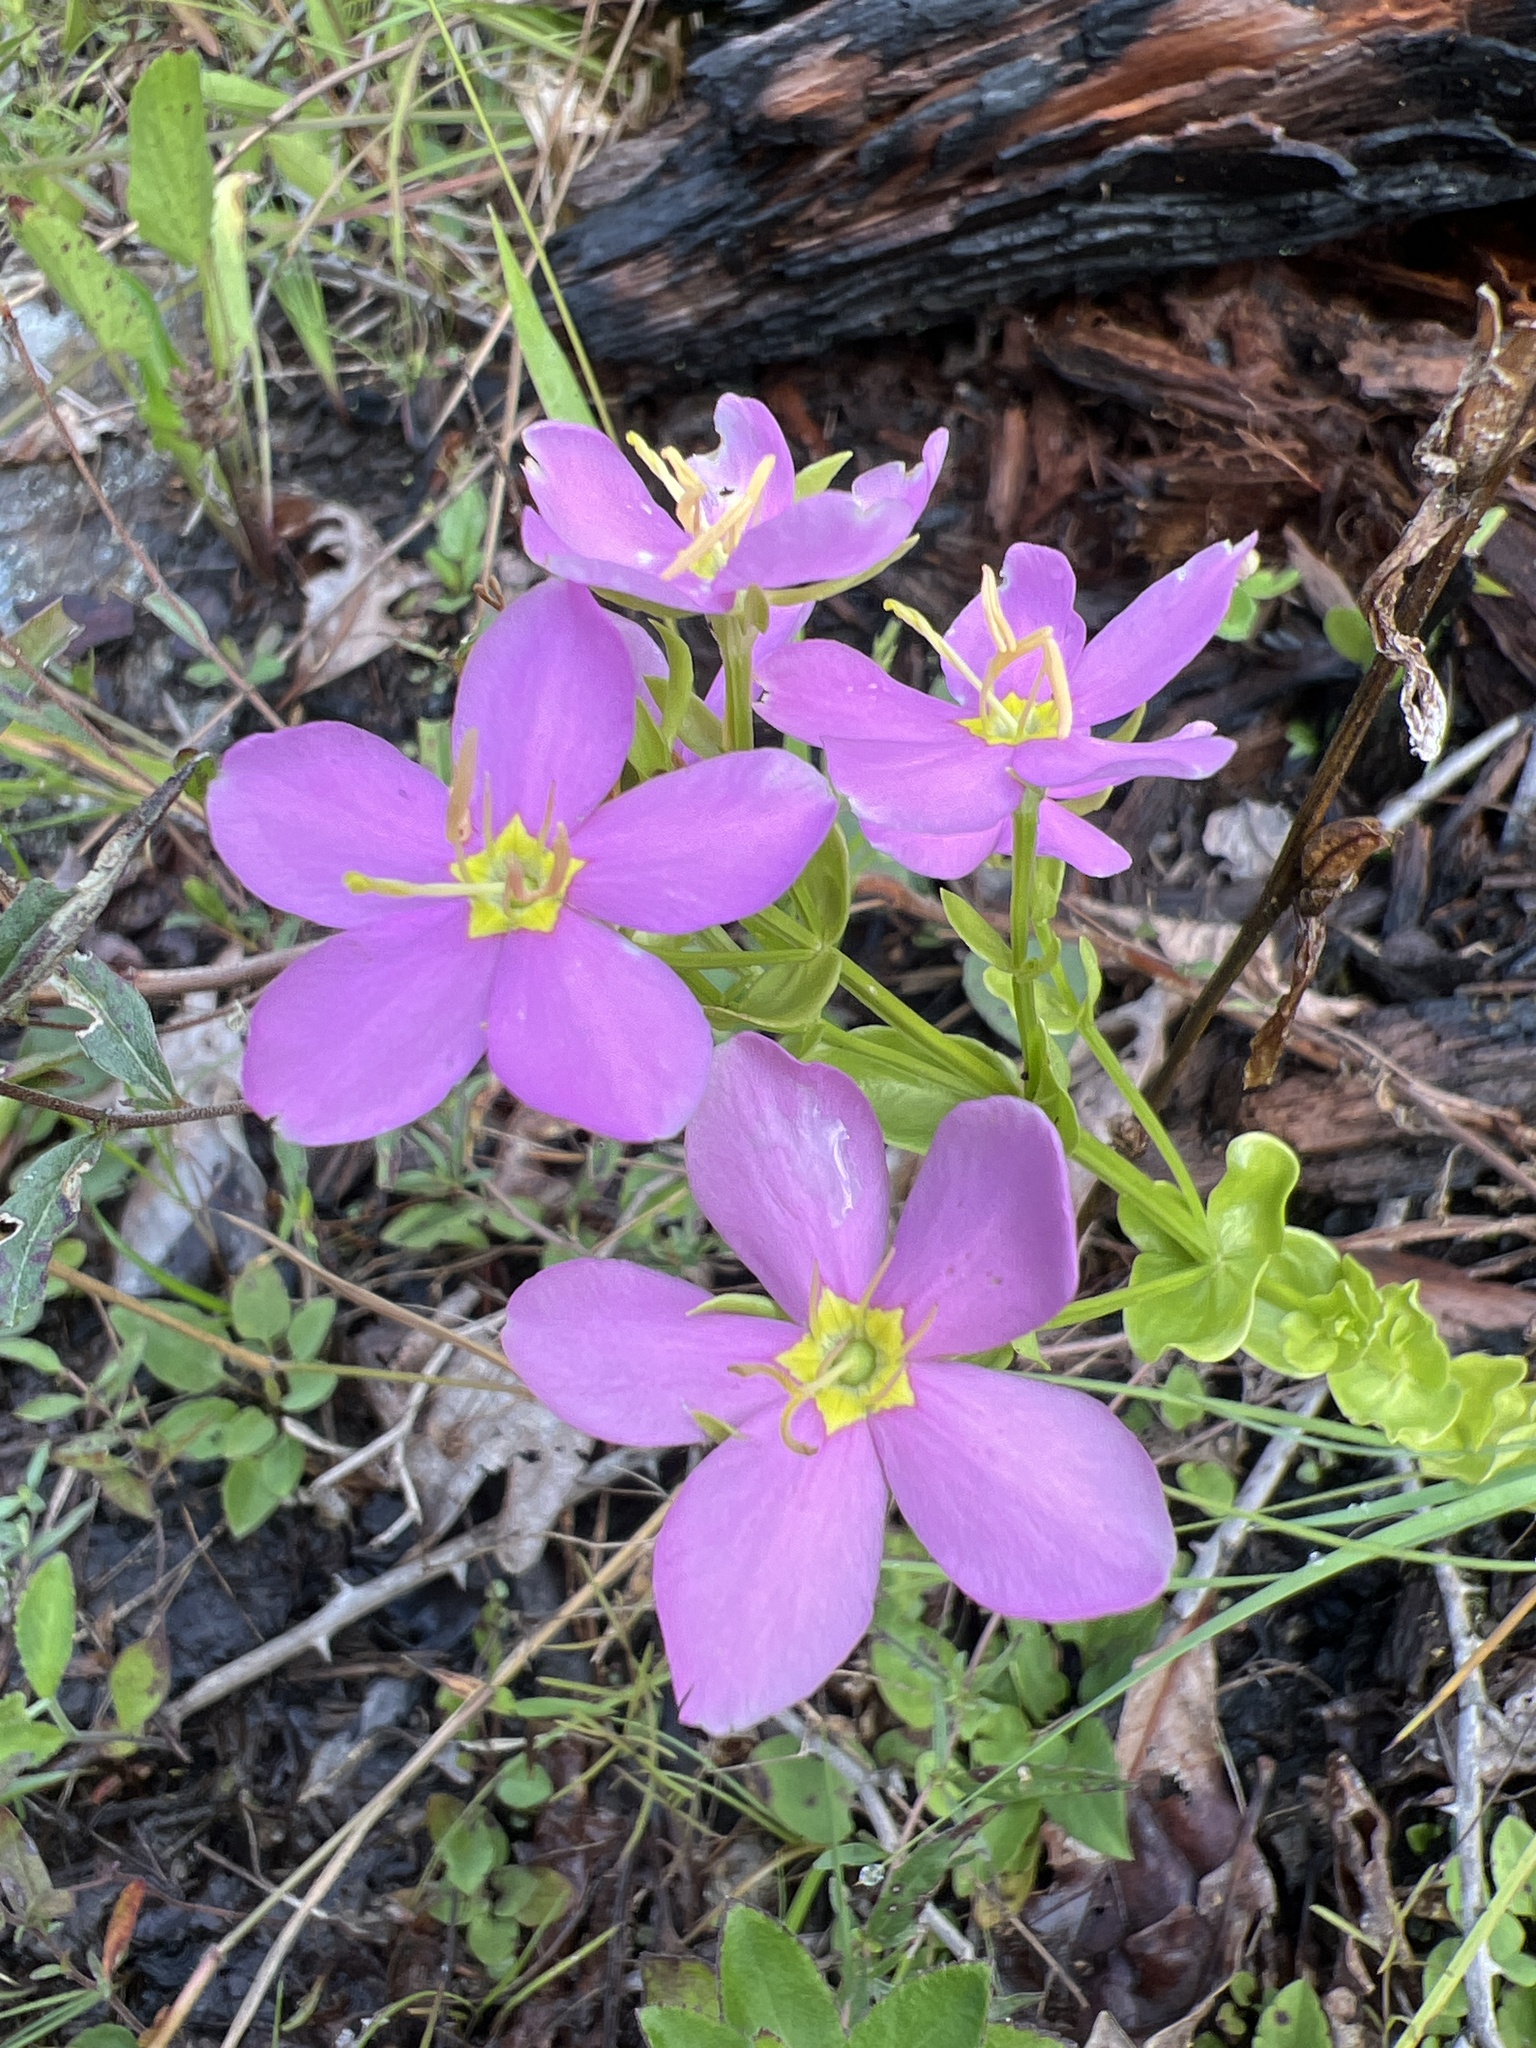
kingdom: Plantae
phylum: Tracheophyta
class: Magnoliopsida
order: Gentianales
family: Gentianaceae
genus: Sabatia
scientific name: Sabatia angularis
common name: Rose-pink
